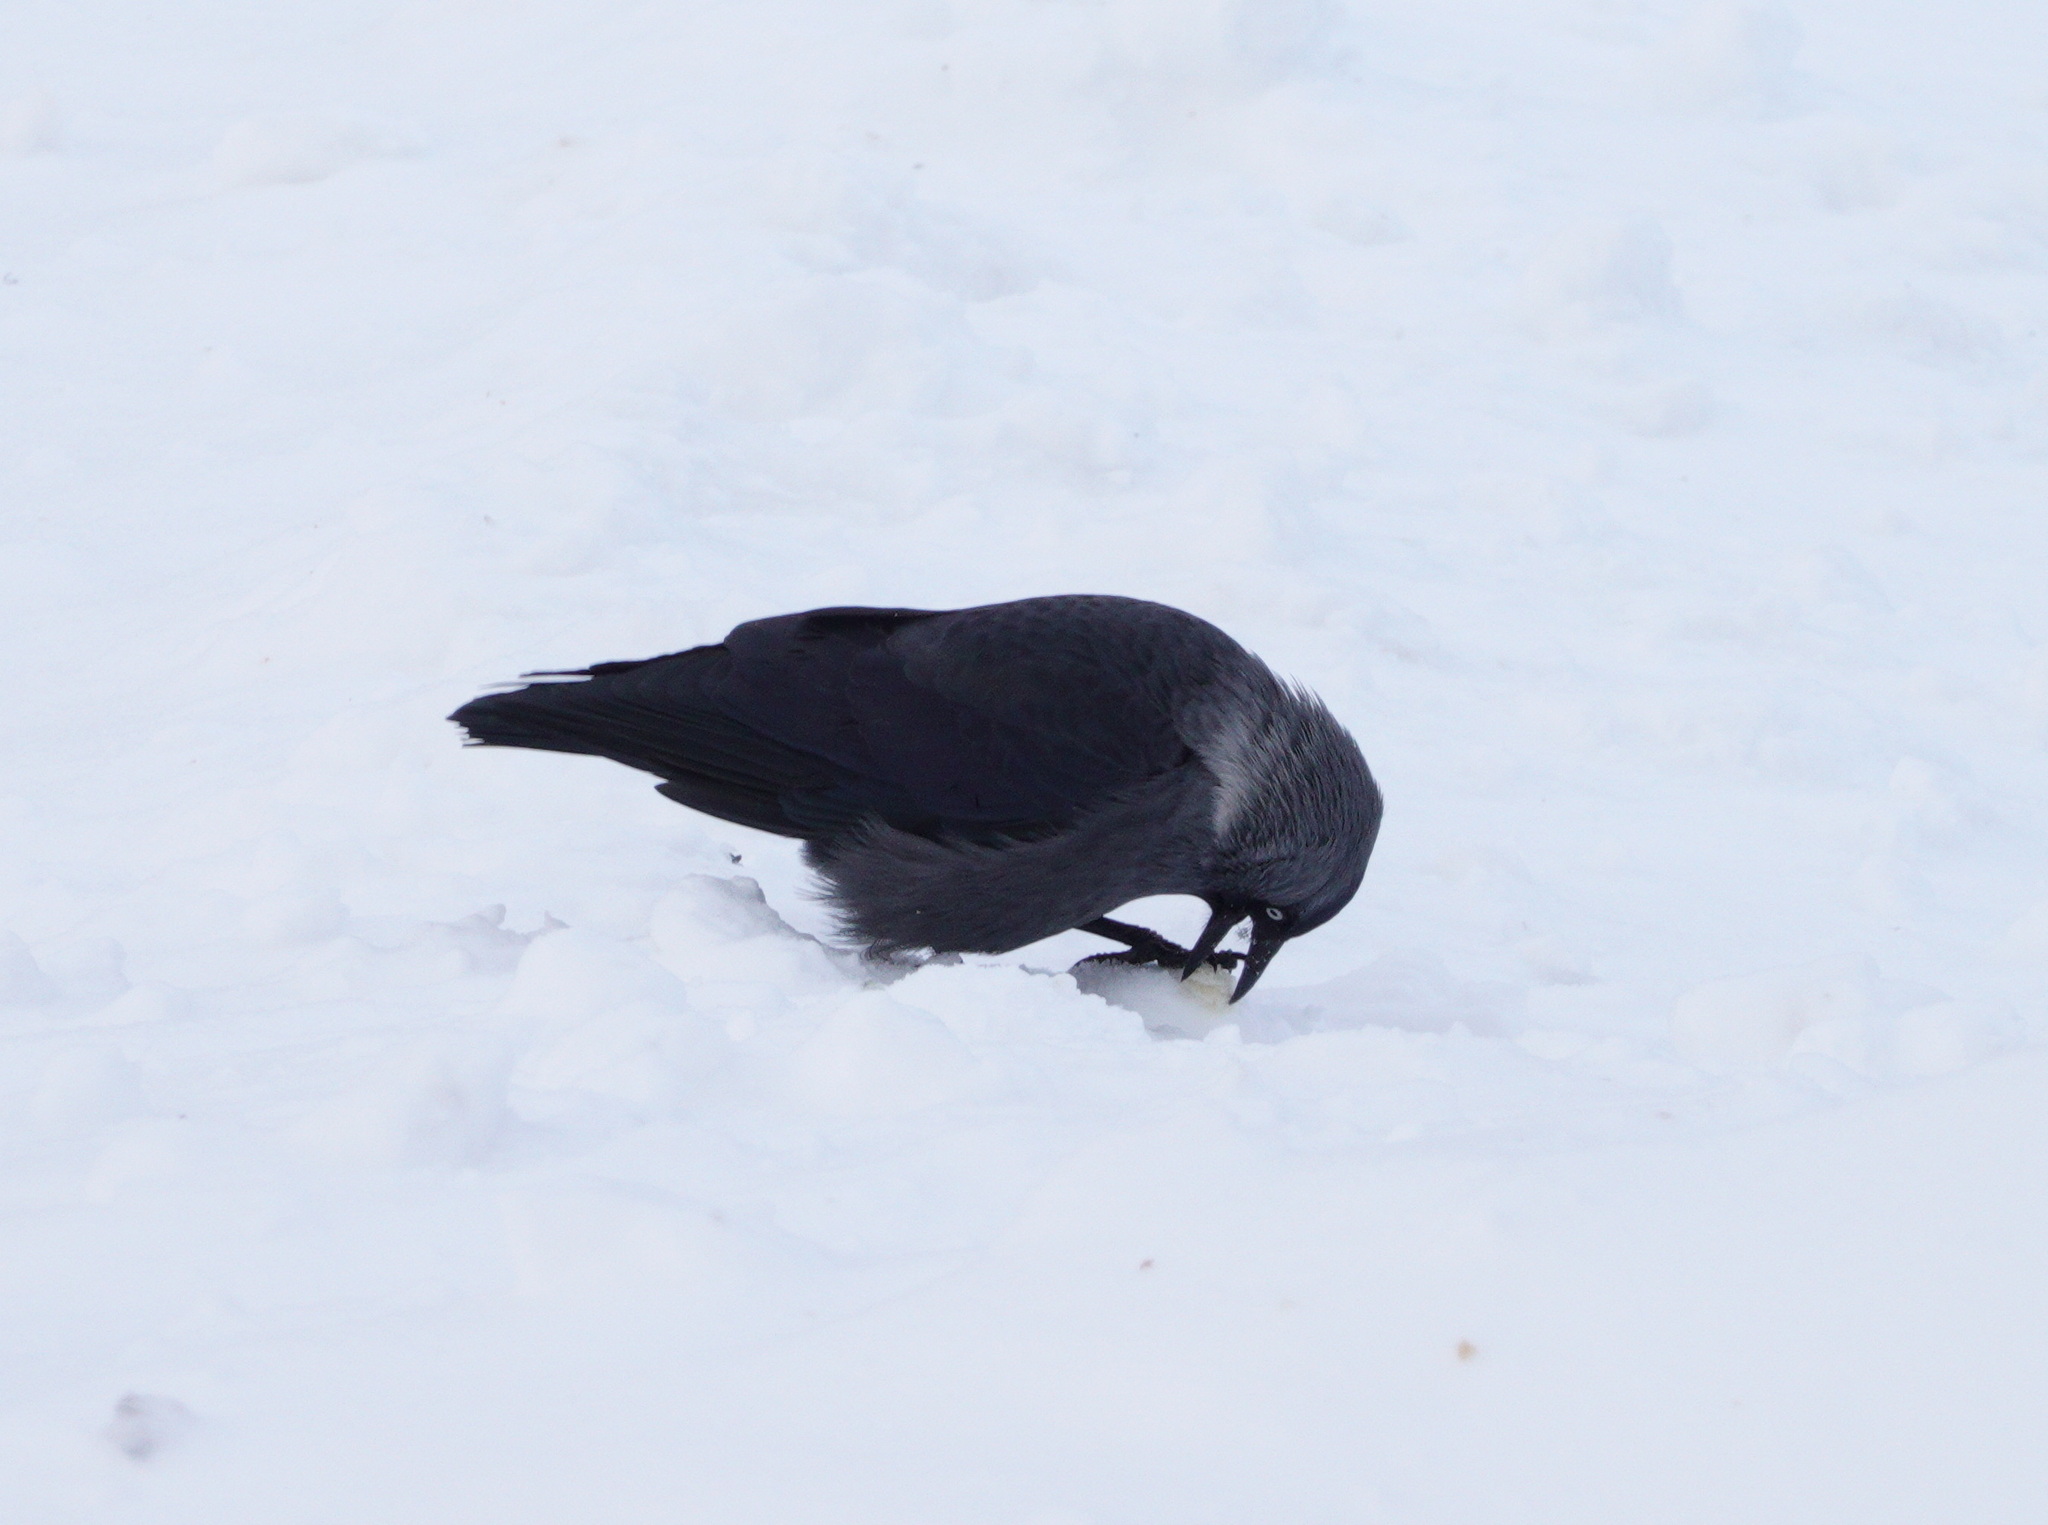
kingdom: Animalia
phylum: Chordata
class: Aves
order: Passeriformes
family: Corvidae
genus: Coloeus
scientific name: Coloeus monedula
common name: Western jackdaw
